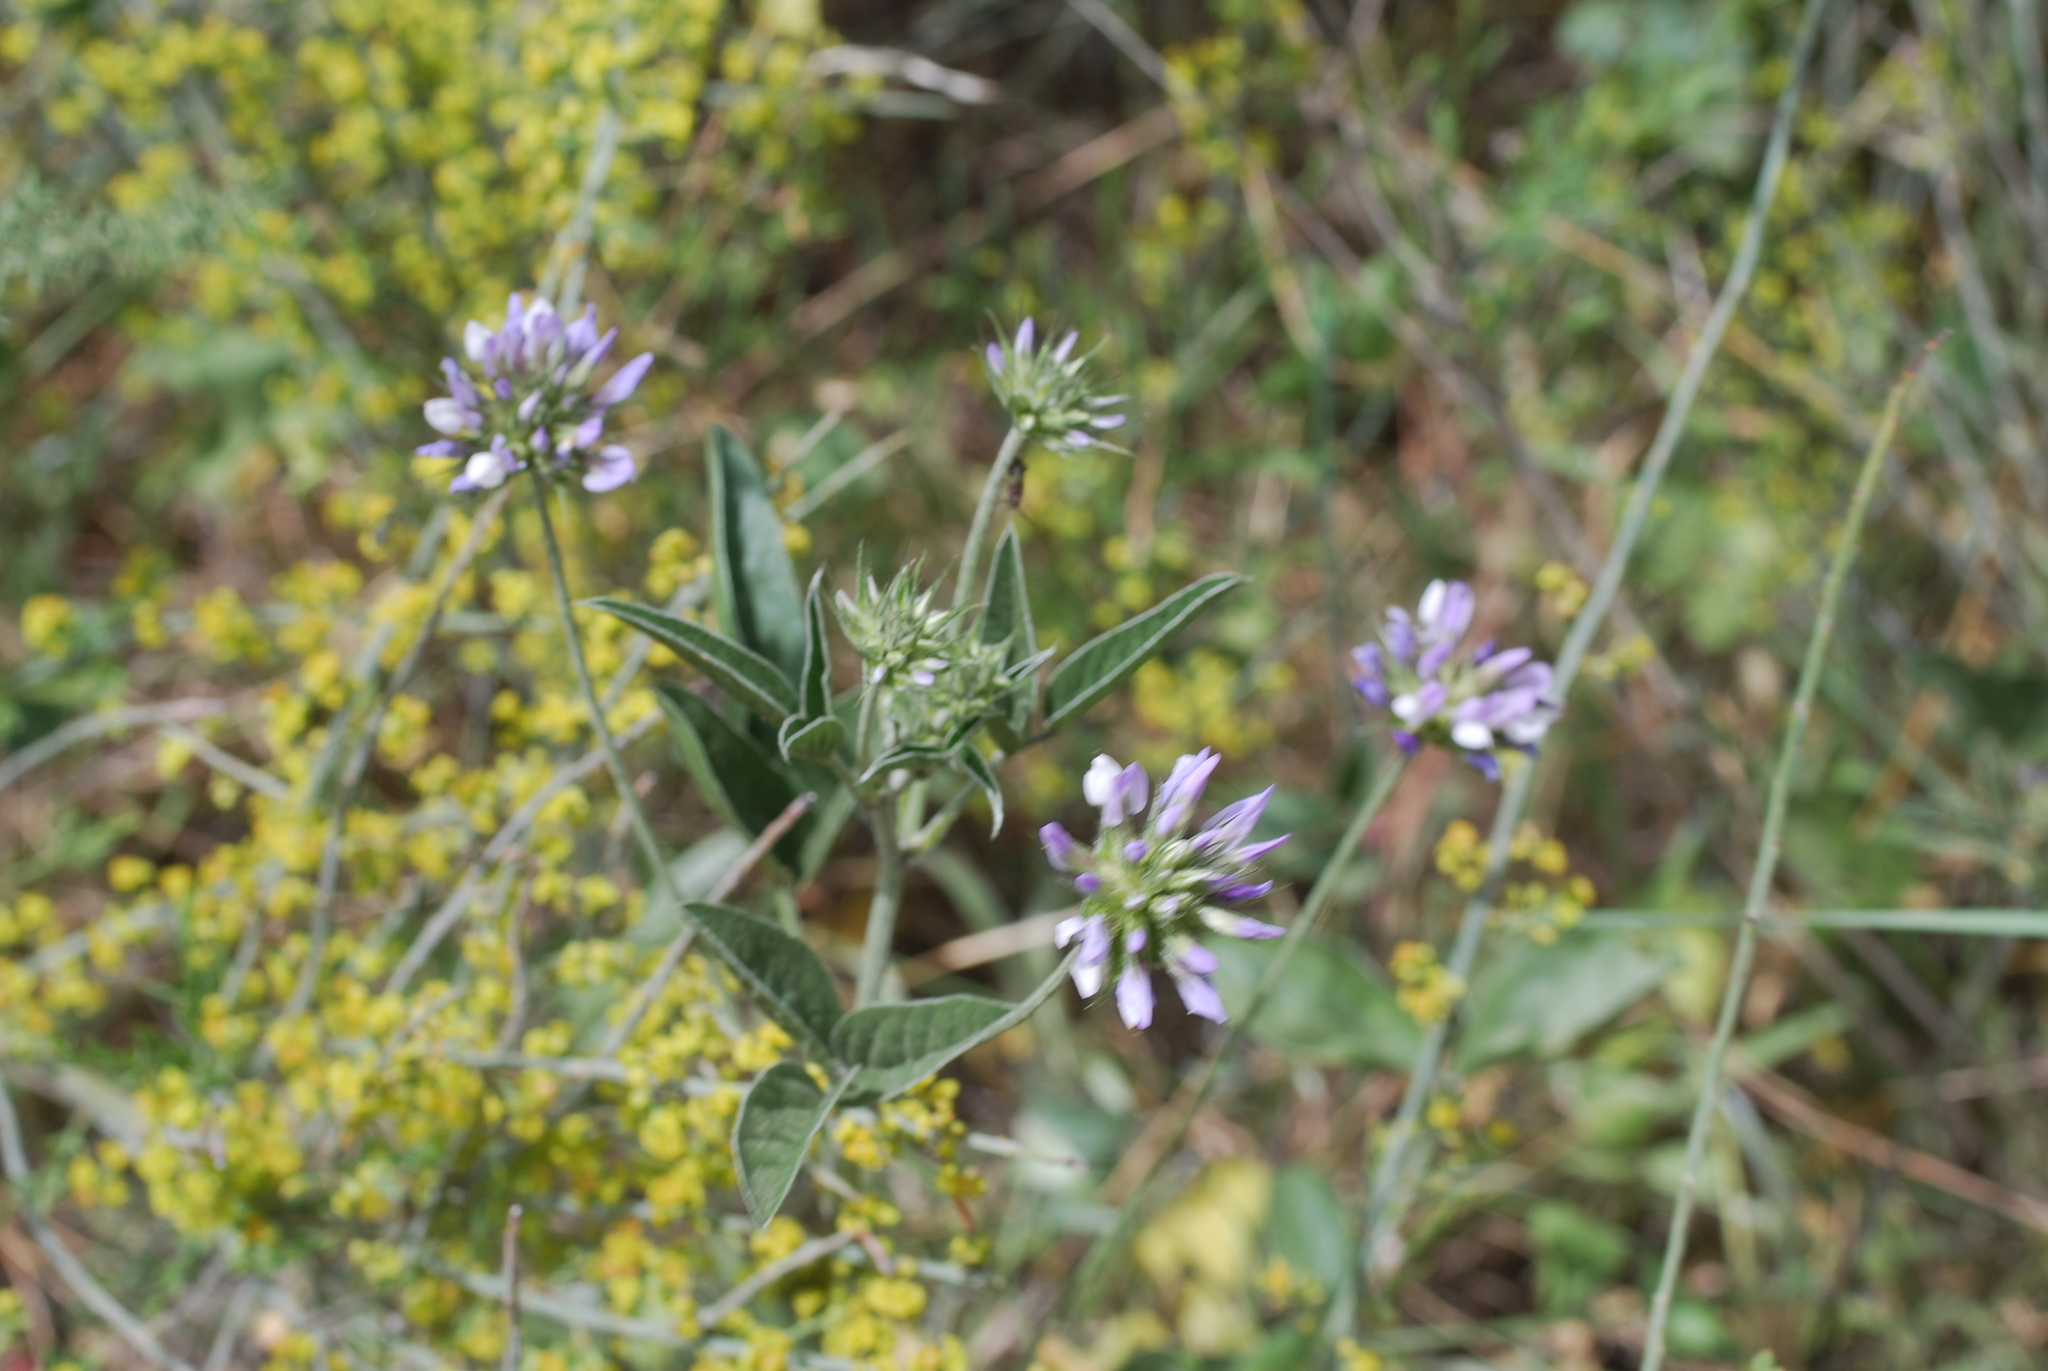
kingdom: Plantae
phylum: Tracheophyta
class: Magnoliopsida
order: Fabales
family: Fabaceae
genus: Bituminaria
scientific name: Bituminaria bituminosa
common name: Arabian pea
